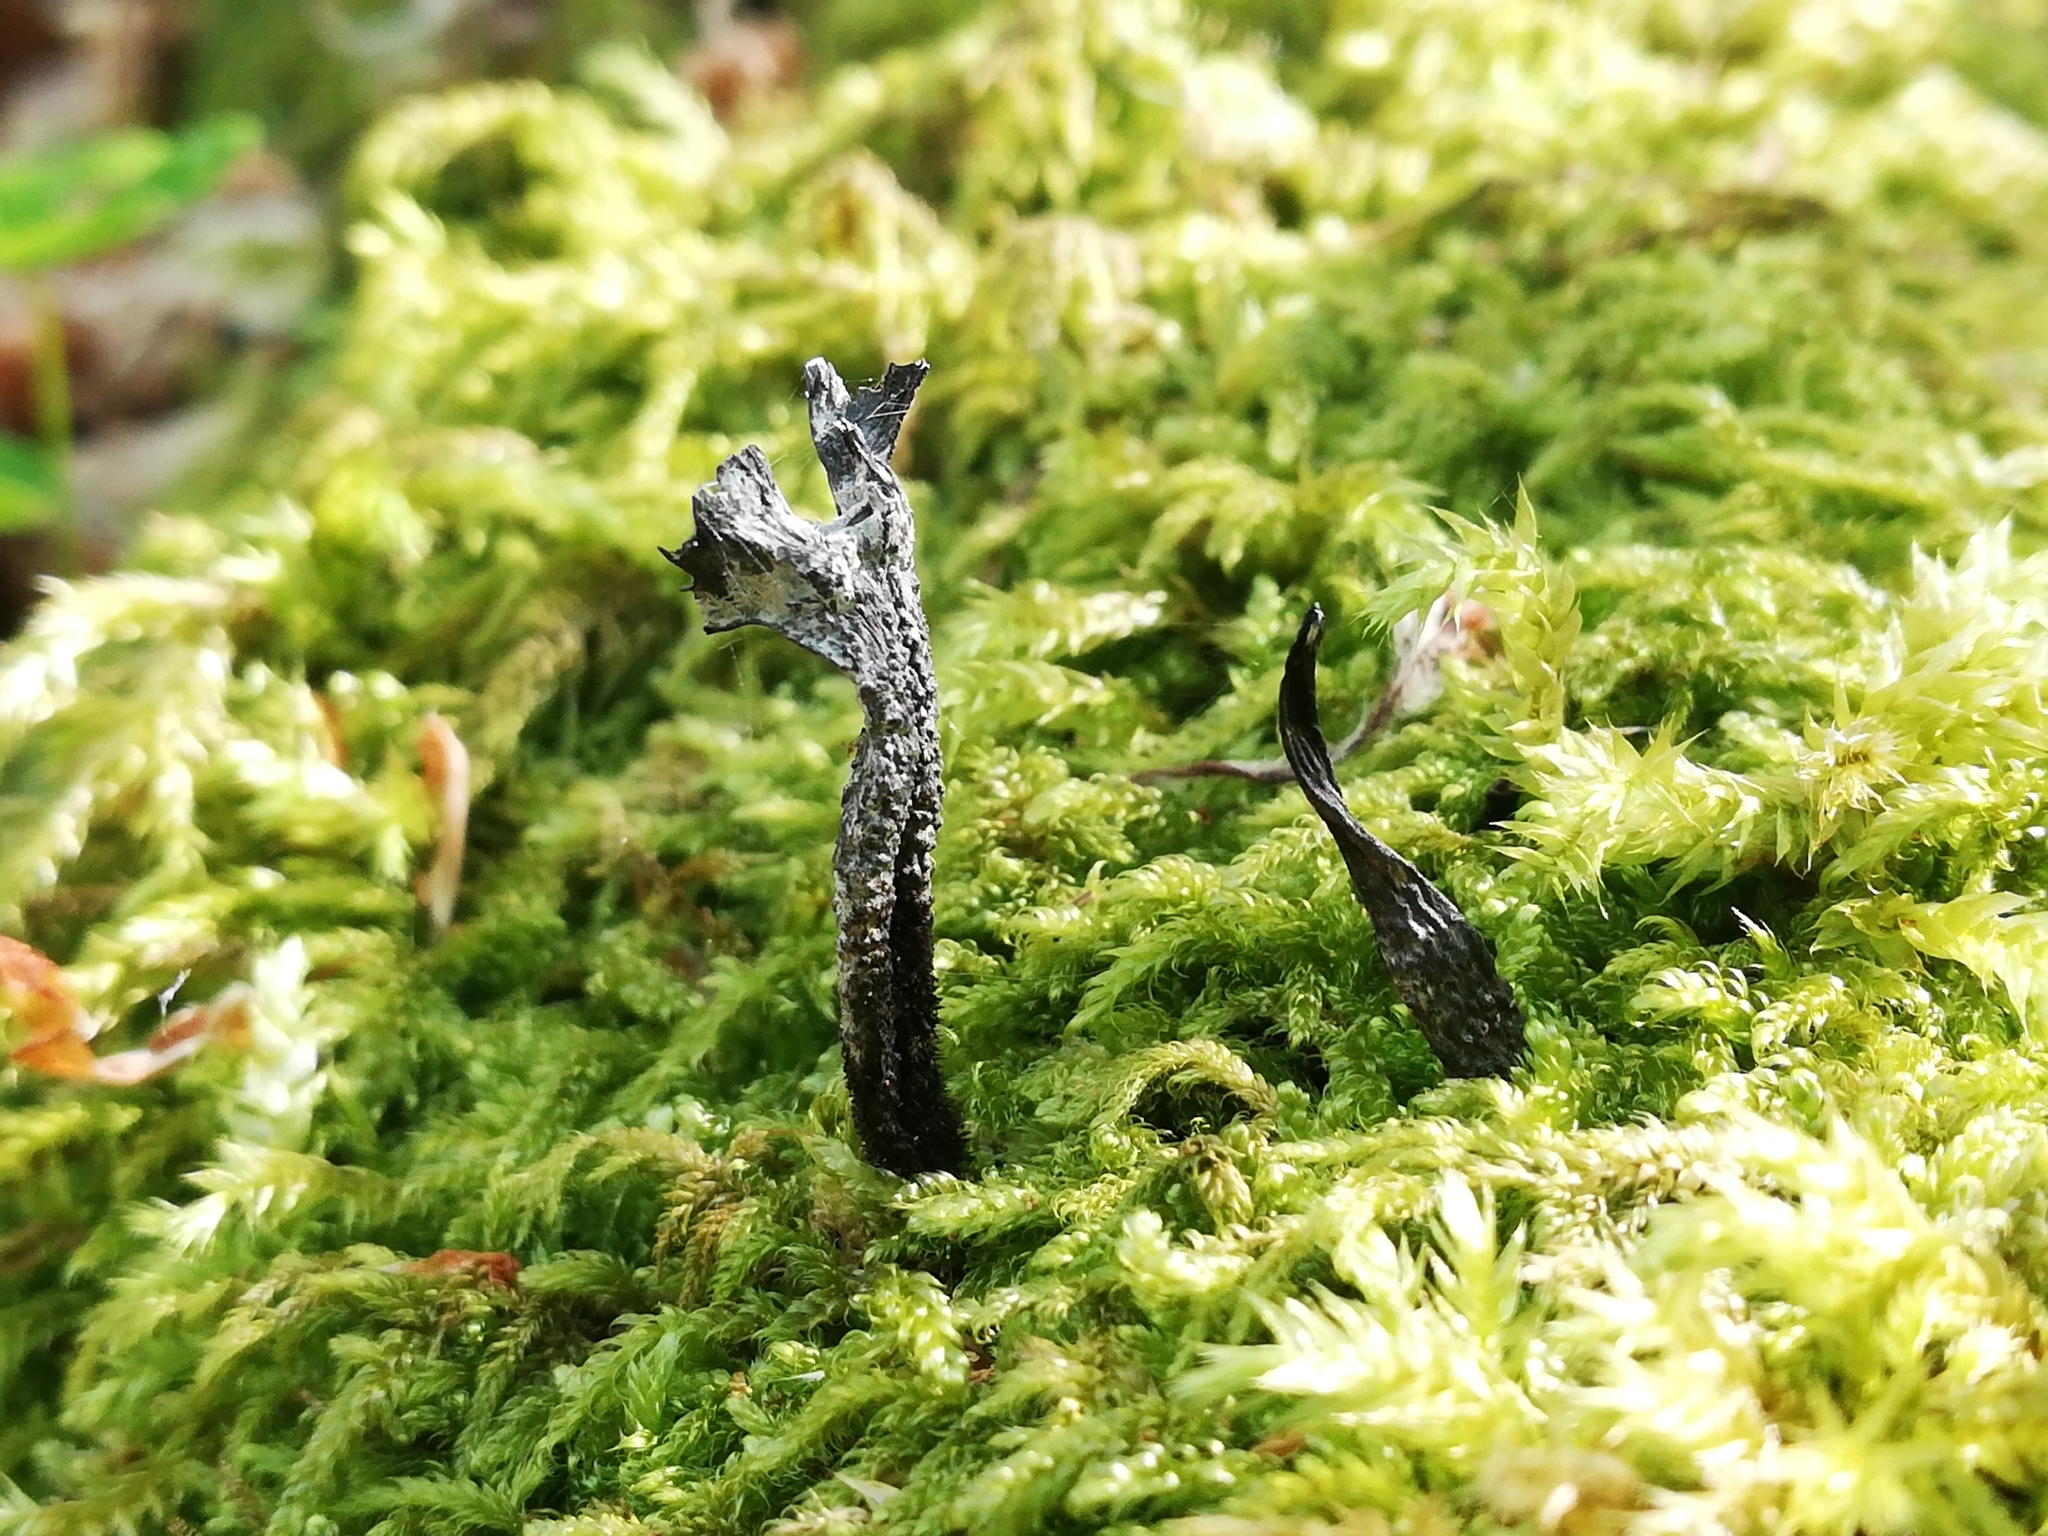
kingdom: Fungi
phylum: Ascomycota
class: Sordariomycetes
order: Xylariales
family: Xylariaceae
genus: Xylaria
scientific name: Xylaria hypoxylon
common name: Candle-snuff fungus
